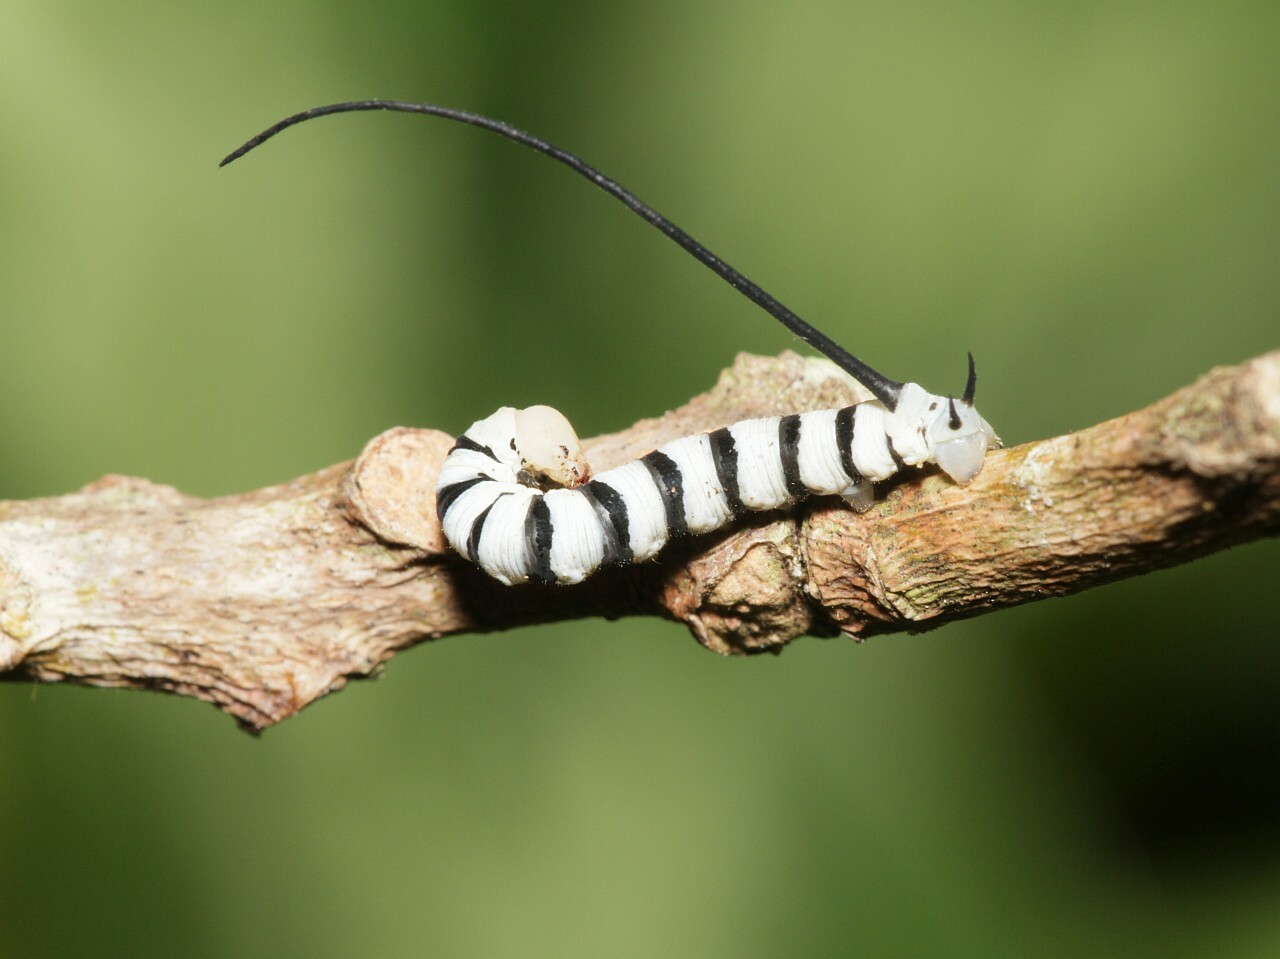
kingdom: Animalia
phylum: Arthropoda
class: Insecta
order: Lepidoptera
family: Sphingidae
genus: Isognathus
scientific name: Isognathus swainsoni
